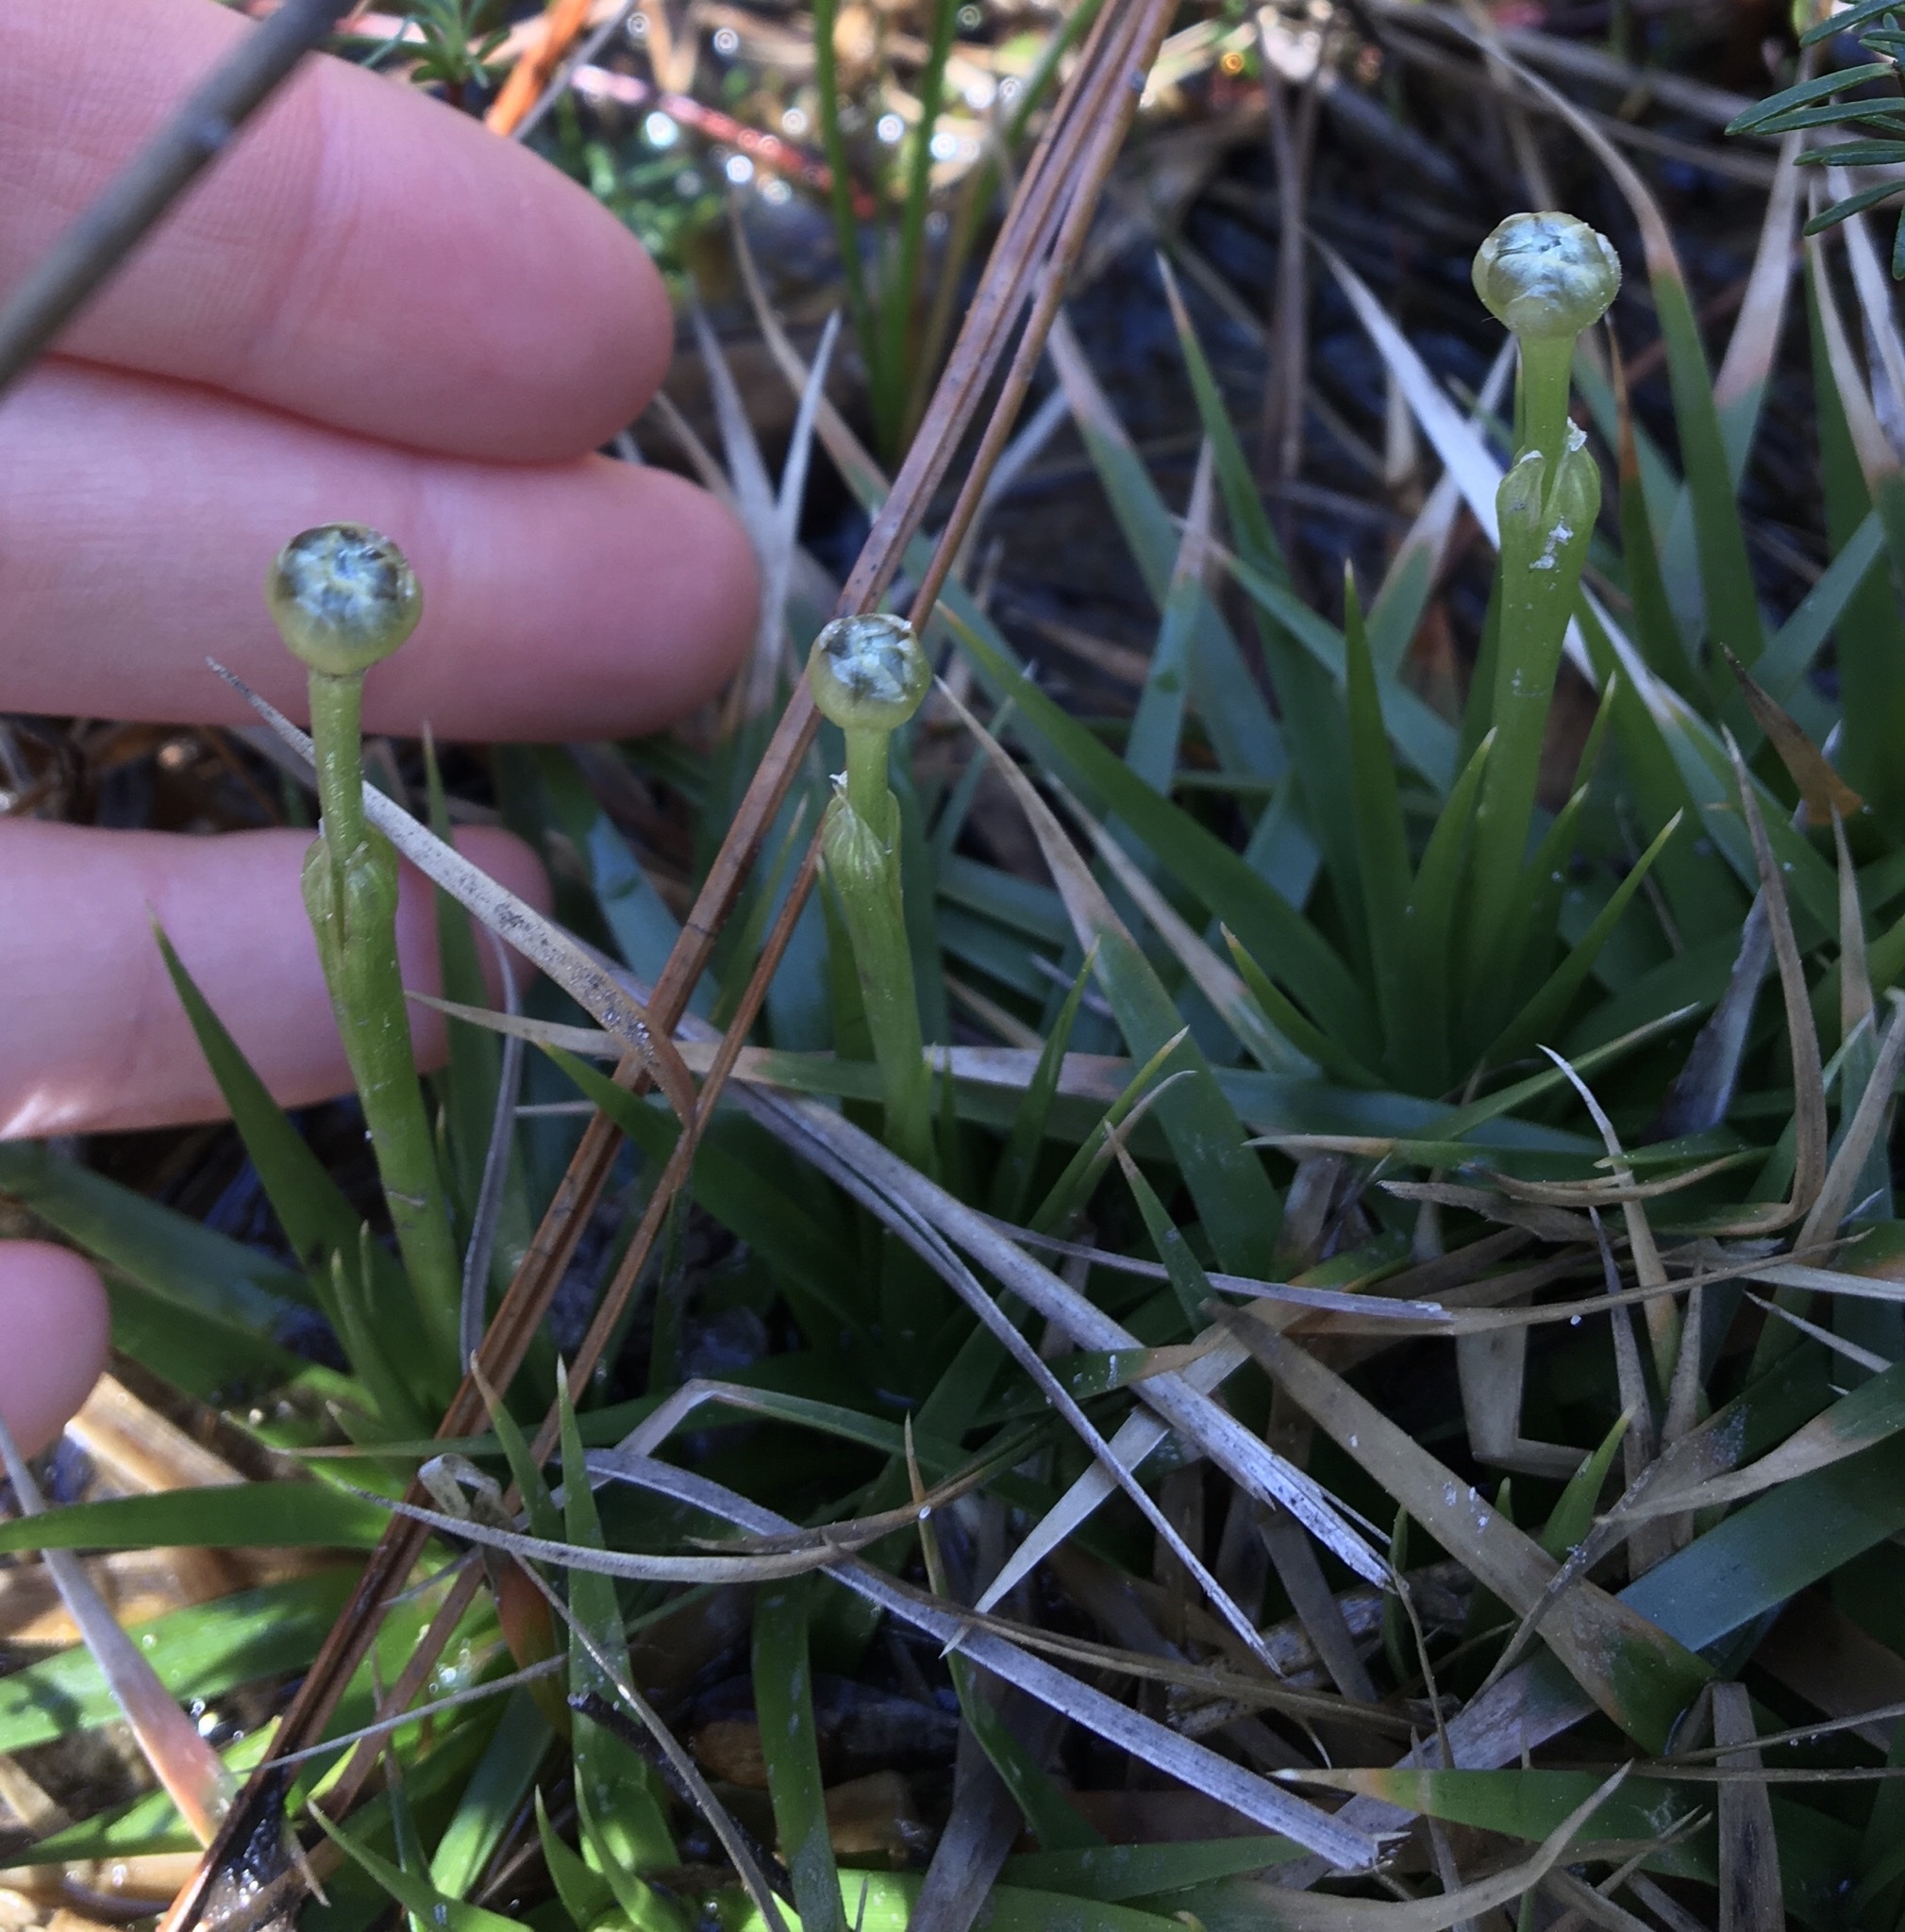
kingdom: Plantae
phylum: Tracheophyta
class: Liliopsida
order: Poales
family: Eriocaulaceae
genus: Eriocaulon
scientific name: Eriocaulon compressum
